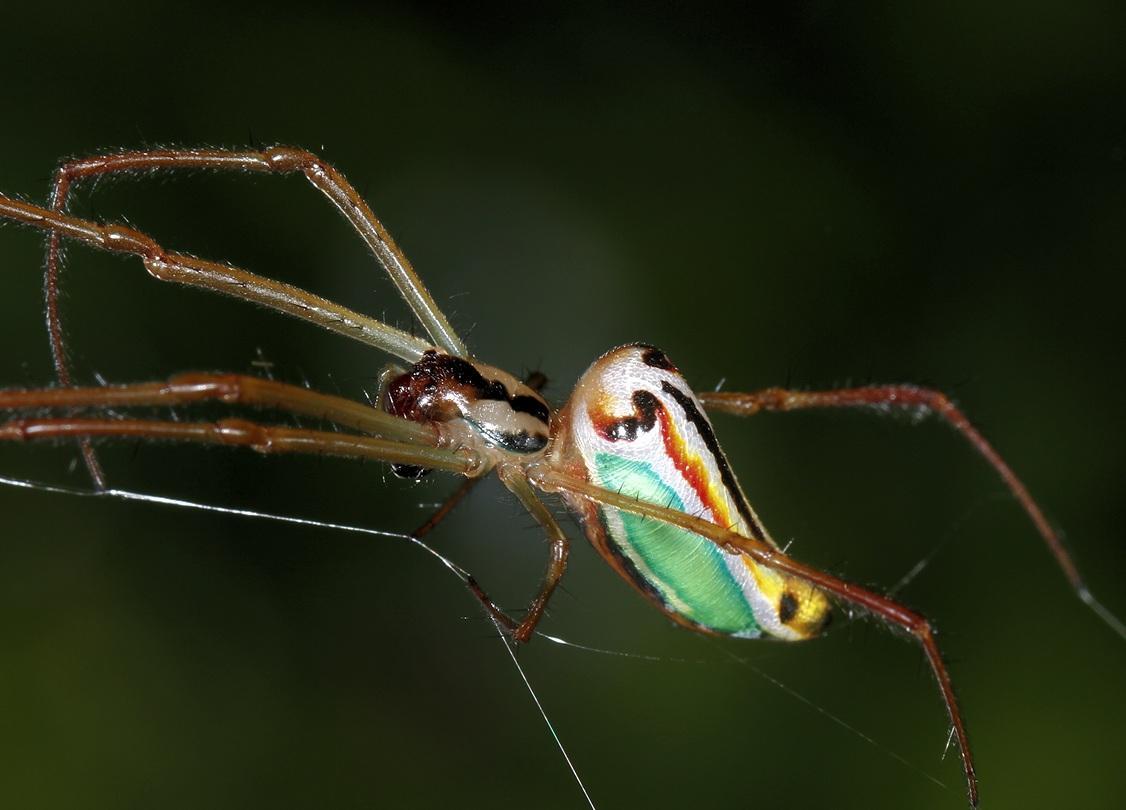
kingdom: Animalia
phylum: Arthropoda
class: Arachnida
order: Araneae
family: Tetragnathidae
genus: Leucauge
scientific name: Leucauge levanderi
